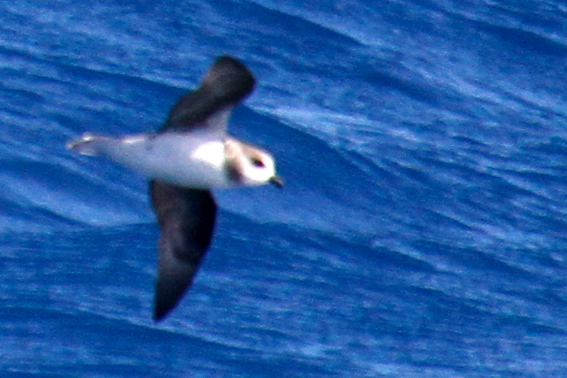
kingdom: Animalia
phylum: Chordata
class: Aves
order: Procellariiformes
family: Procellariidae
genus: Pterodroma
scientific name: Pterodroma mollis
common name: Soft-plumaged petrel
